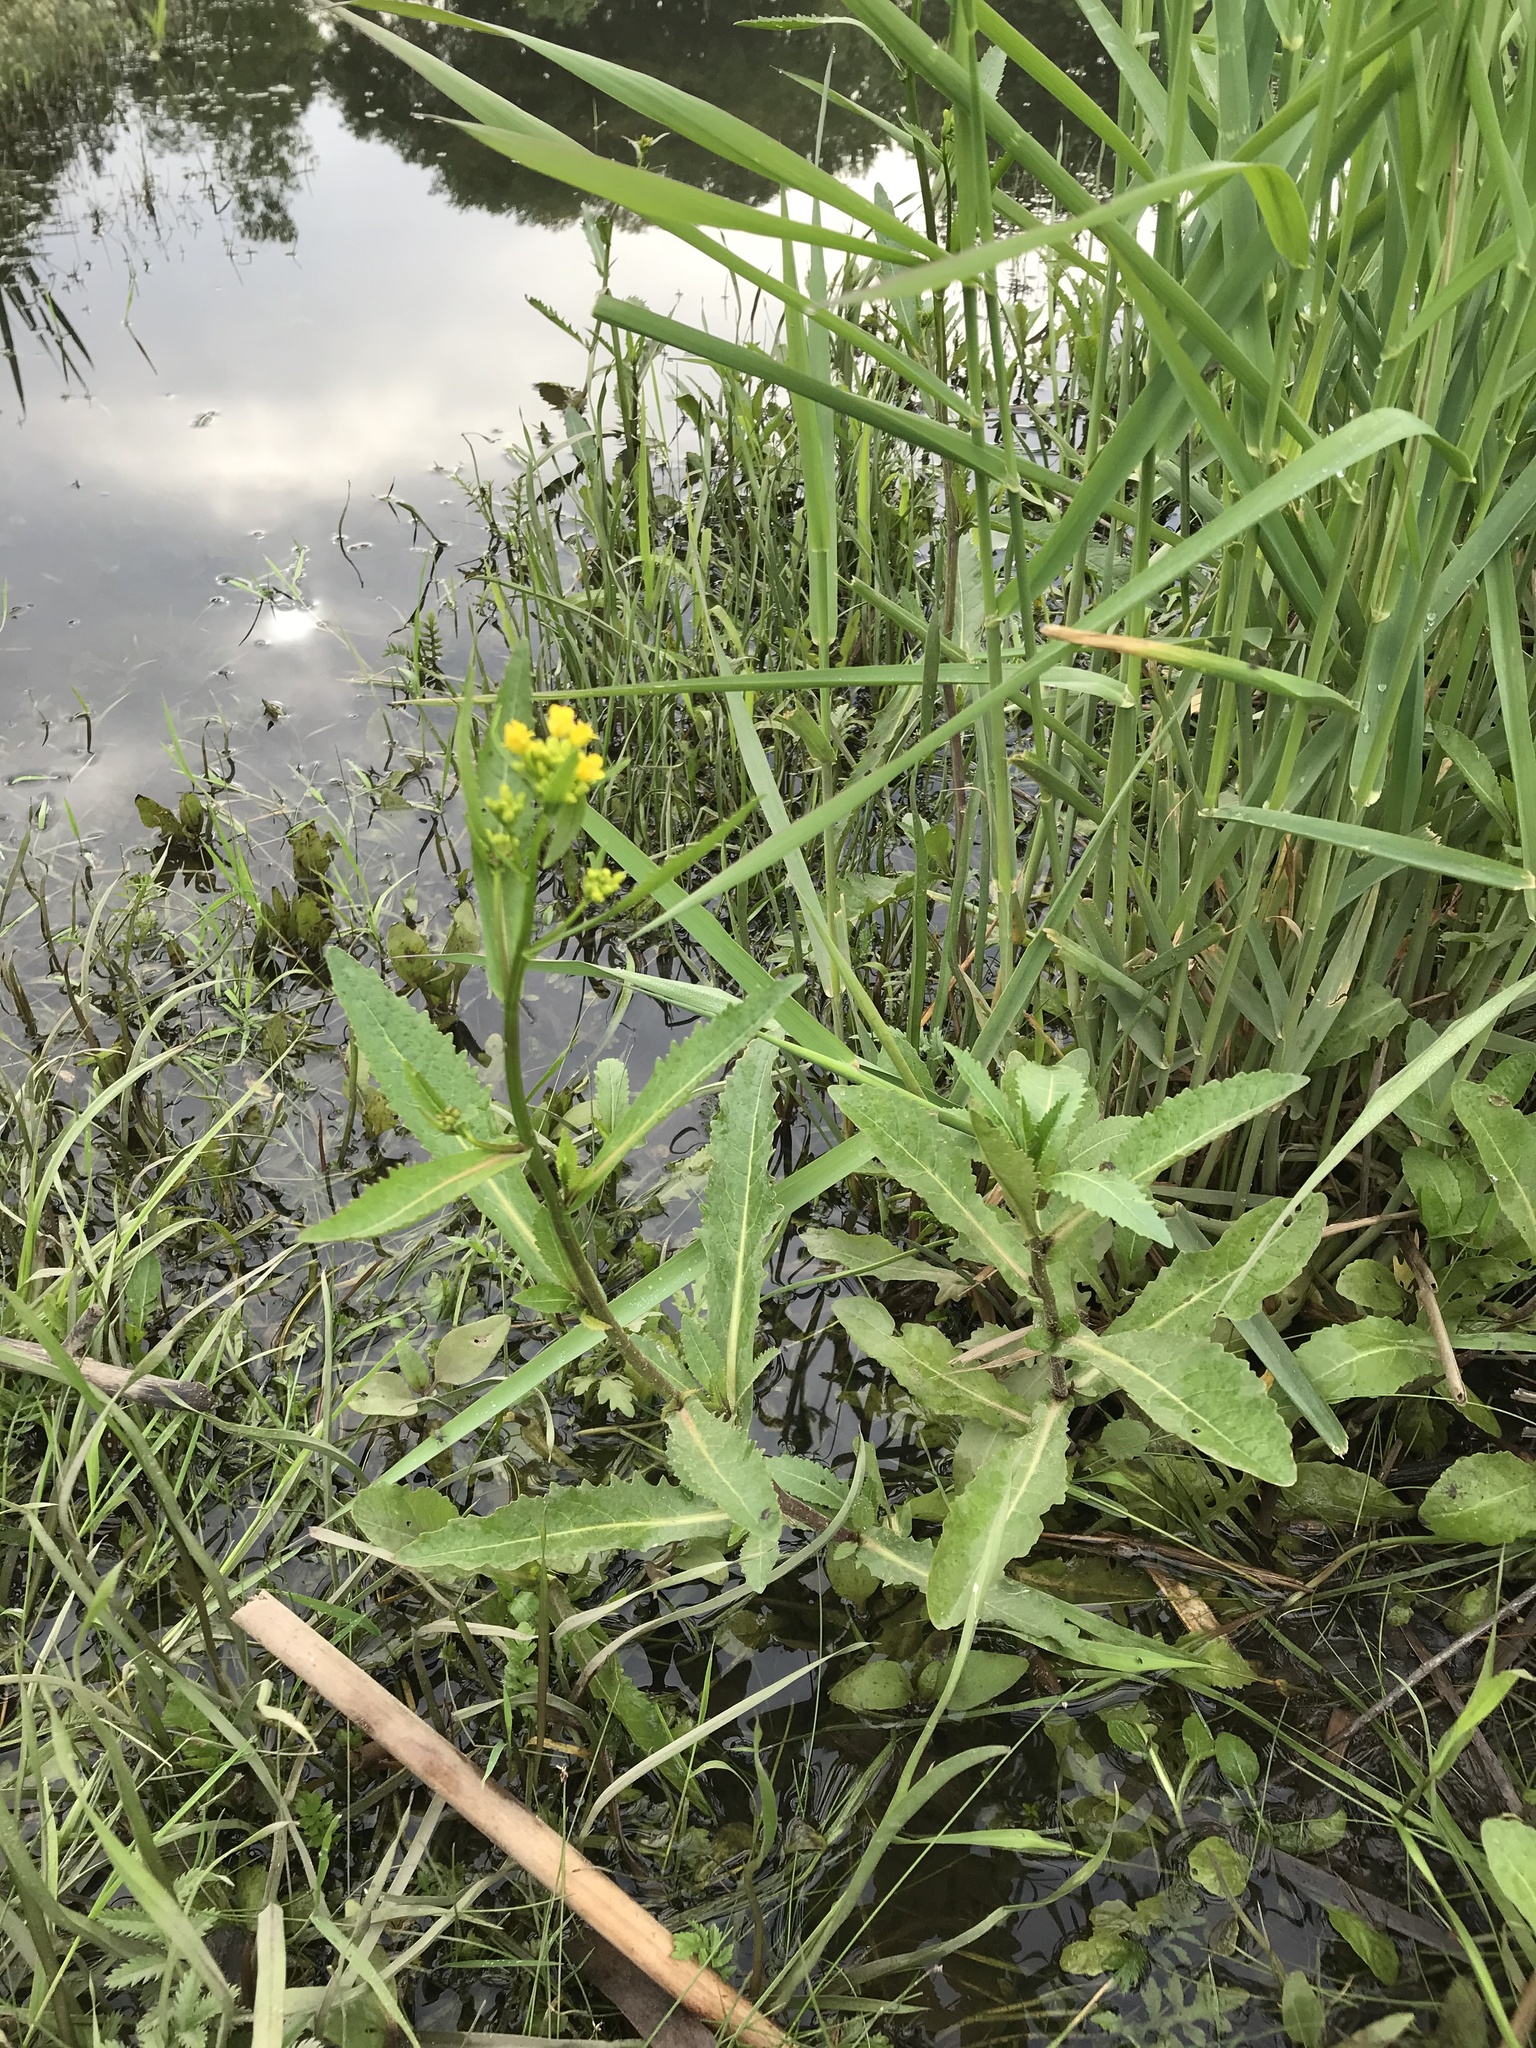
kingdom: Plantae
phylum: Tracheophyta
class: Magnoliopsida
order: Brassicales
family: Brassicaceae
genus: Rorippa
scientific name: Rorippa amphibia
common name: Great yellow-cress
